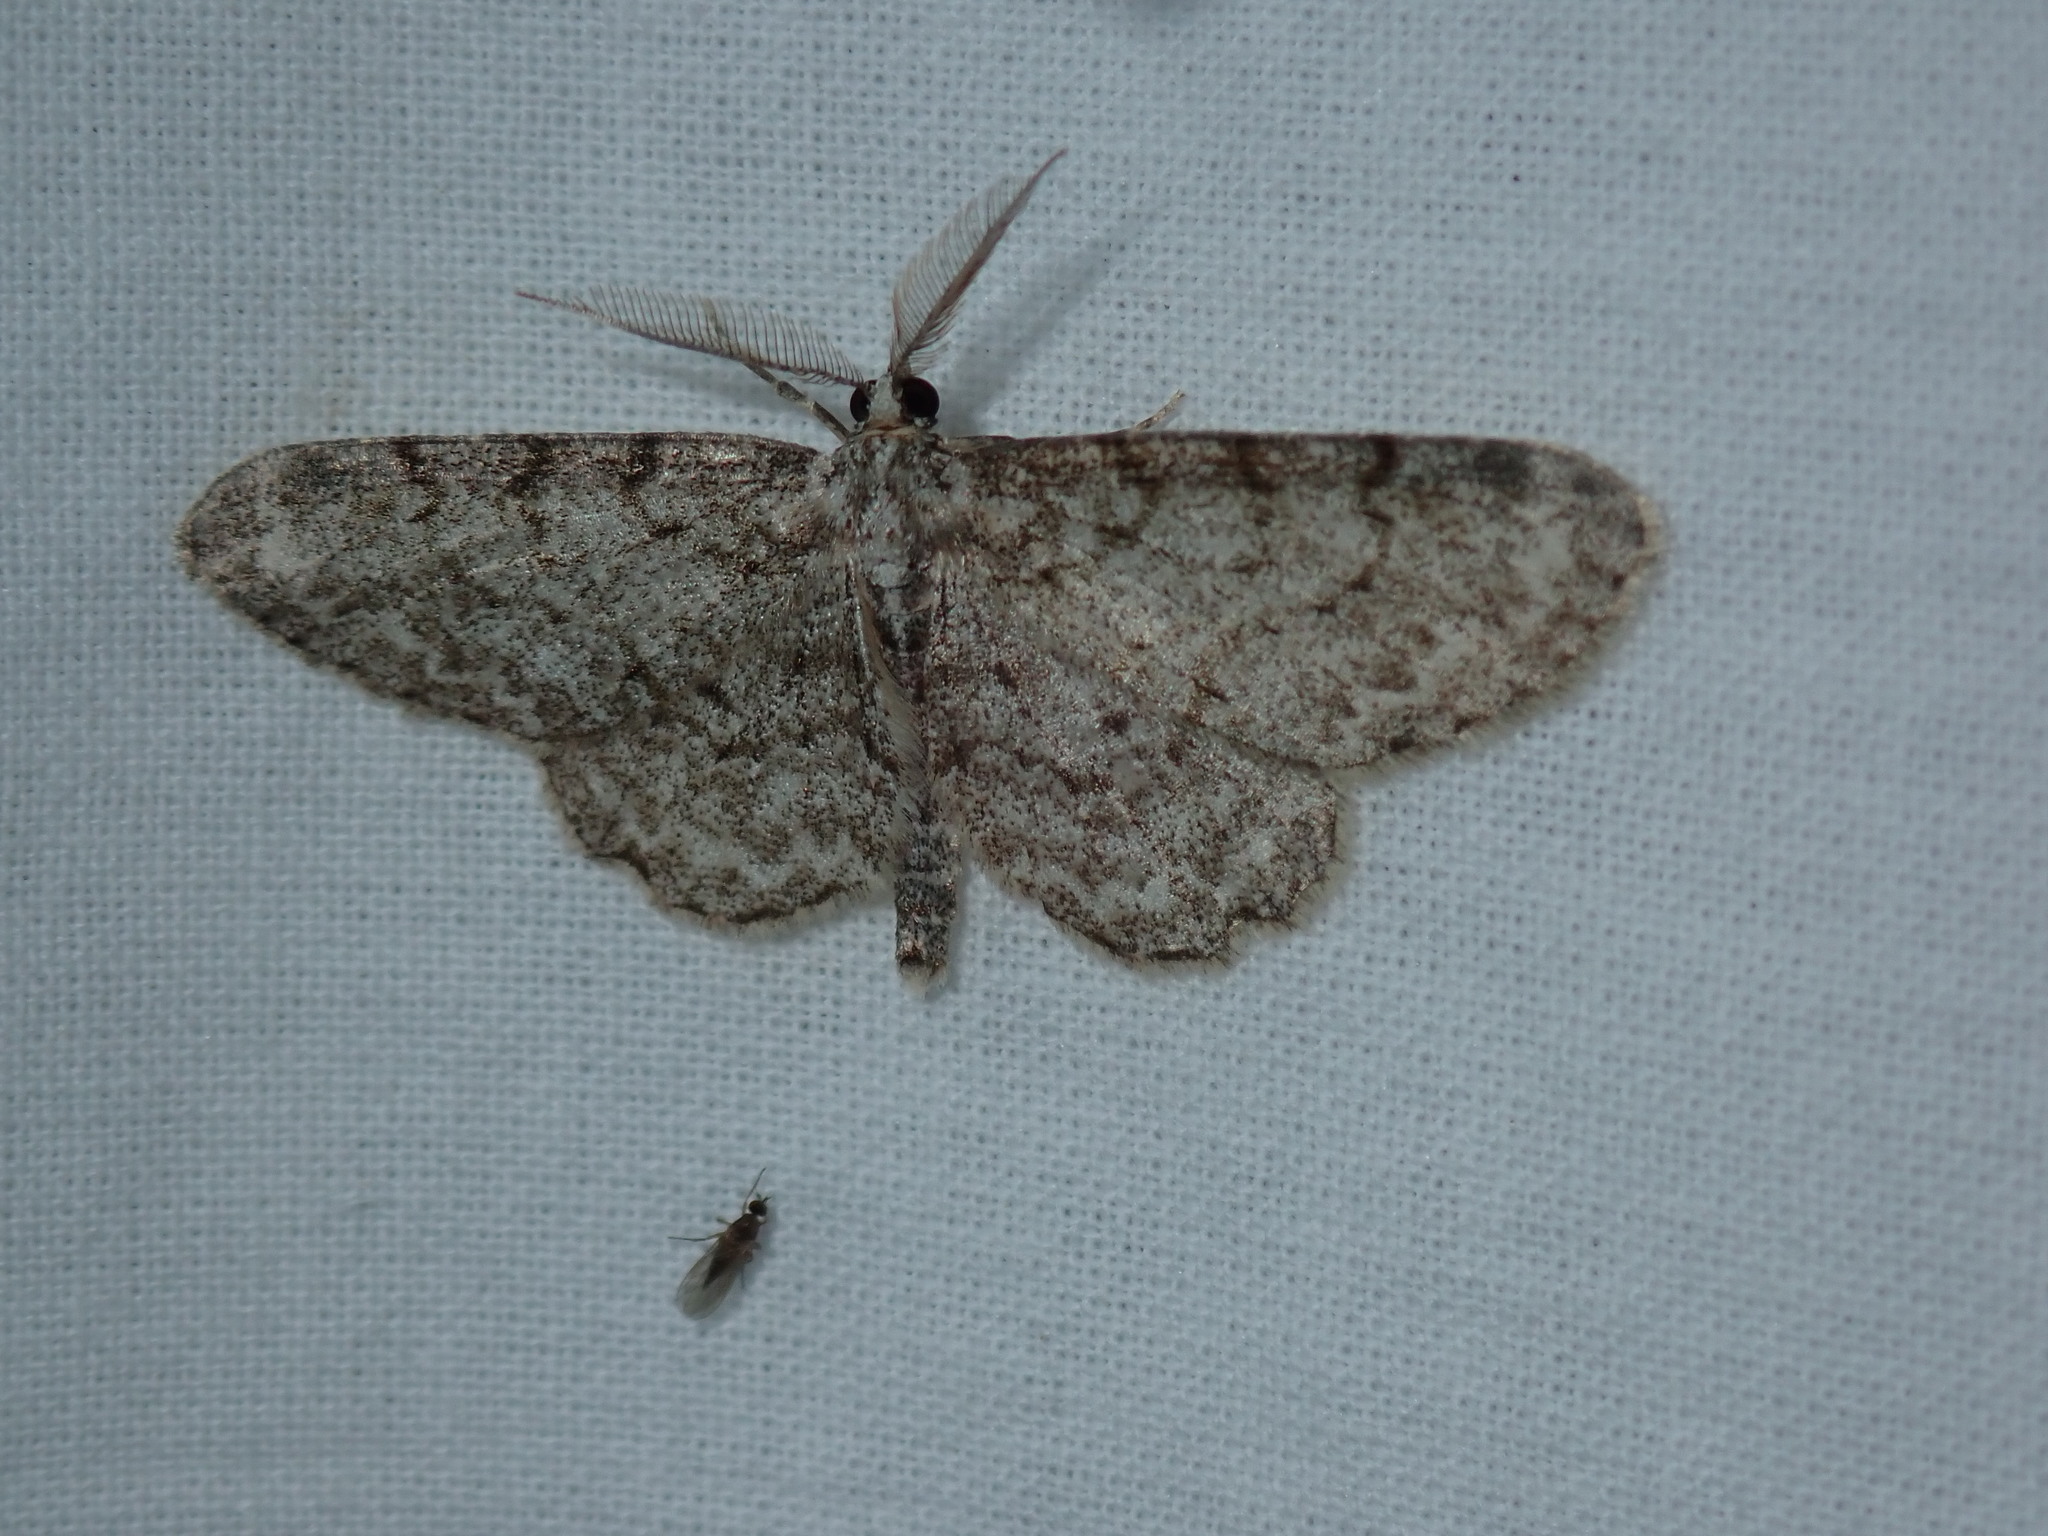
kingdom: Animalia
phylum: Arthropoda
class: Insecta
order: Lepidoptera
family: Geometridae
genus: Protoboarmia
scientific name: Protoboarmia porcelaria
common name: Porcelain gray
